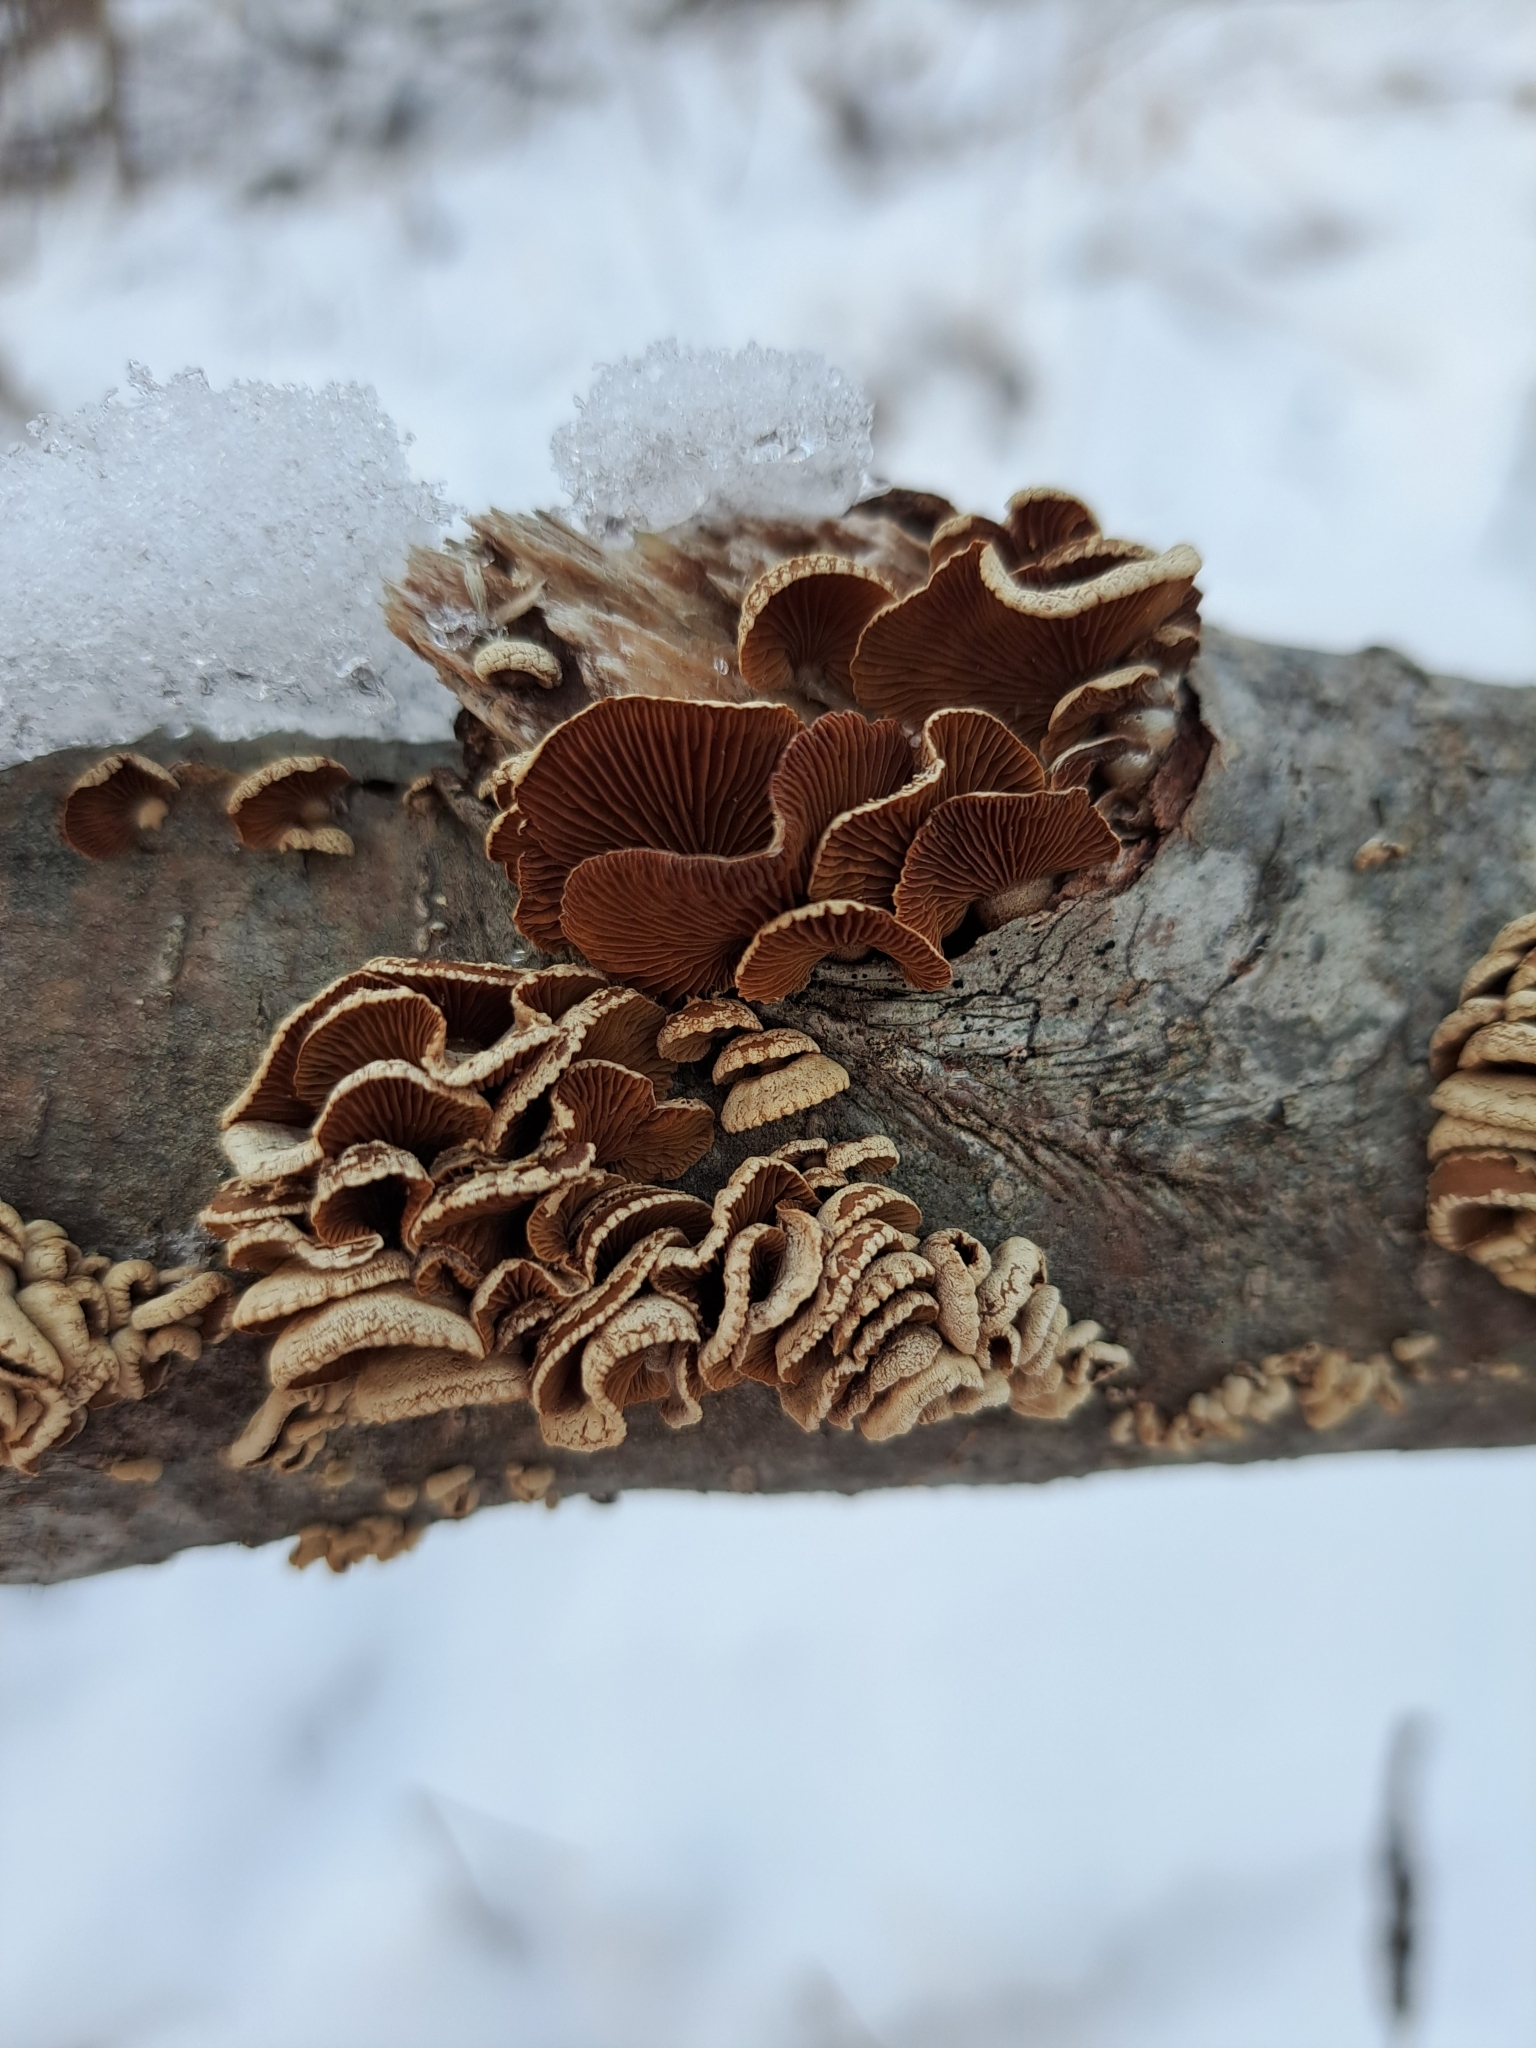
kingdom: Fungi
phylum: Basidiomycota
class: Agaricomycetes
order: Agaricales
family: Mycenaceae
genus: Panellus
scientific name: Panellus stipticus
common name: Bitter oysterling
